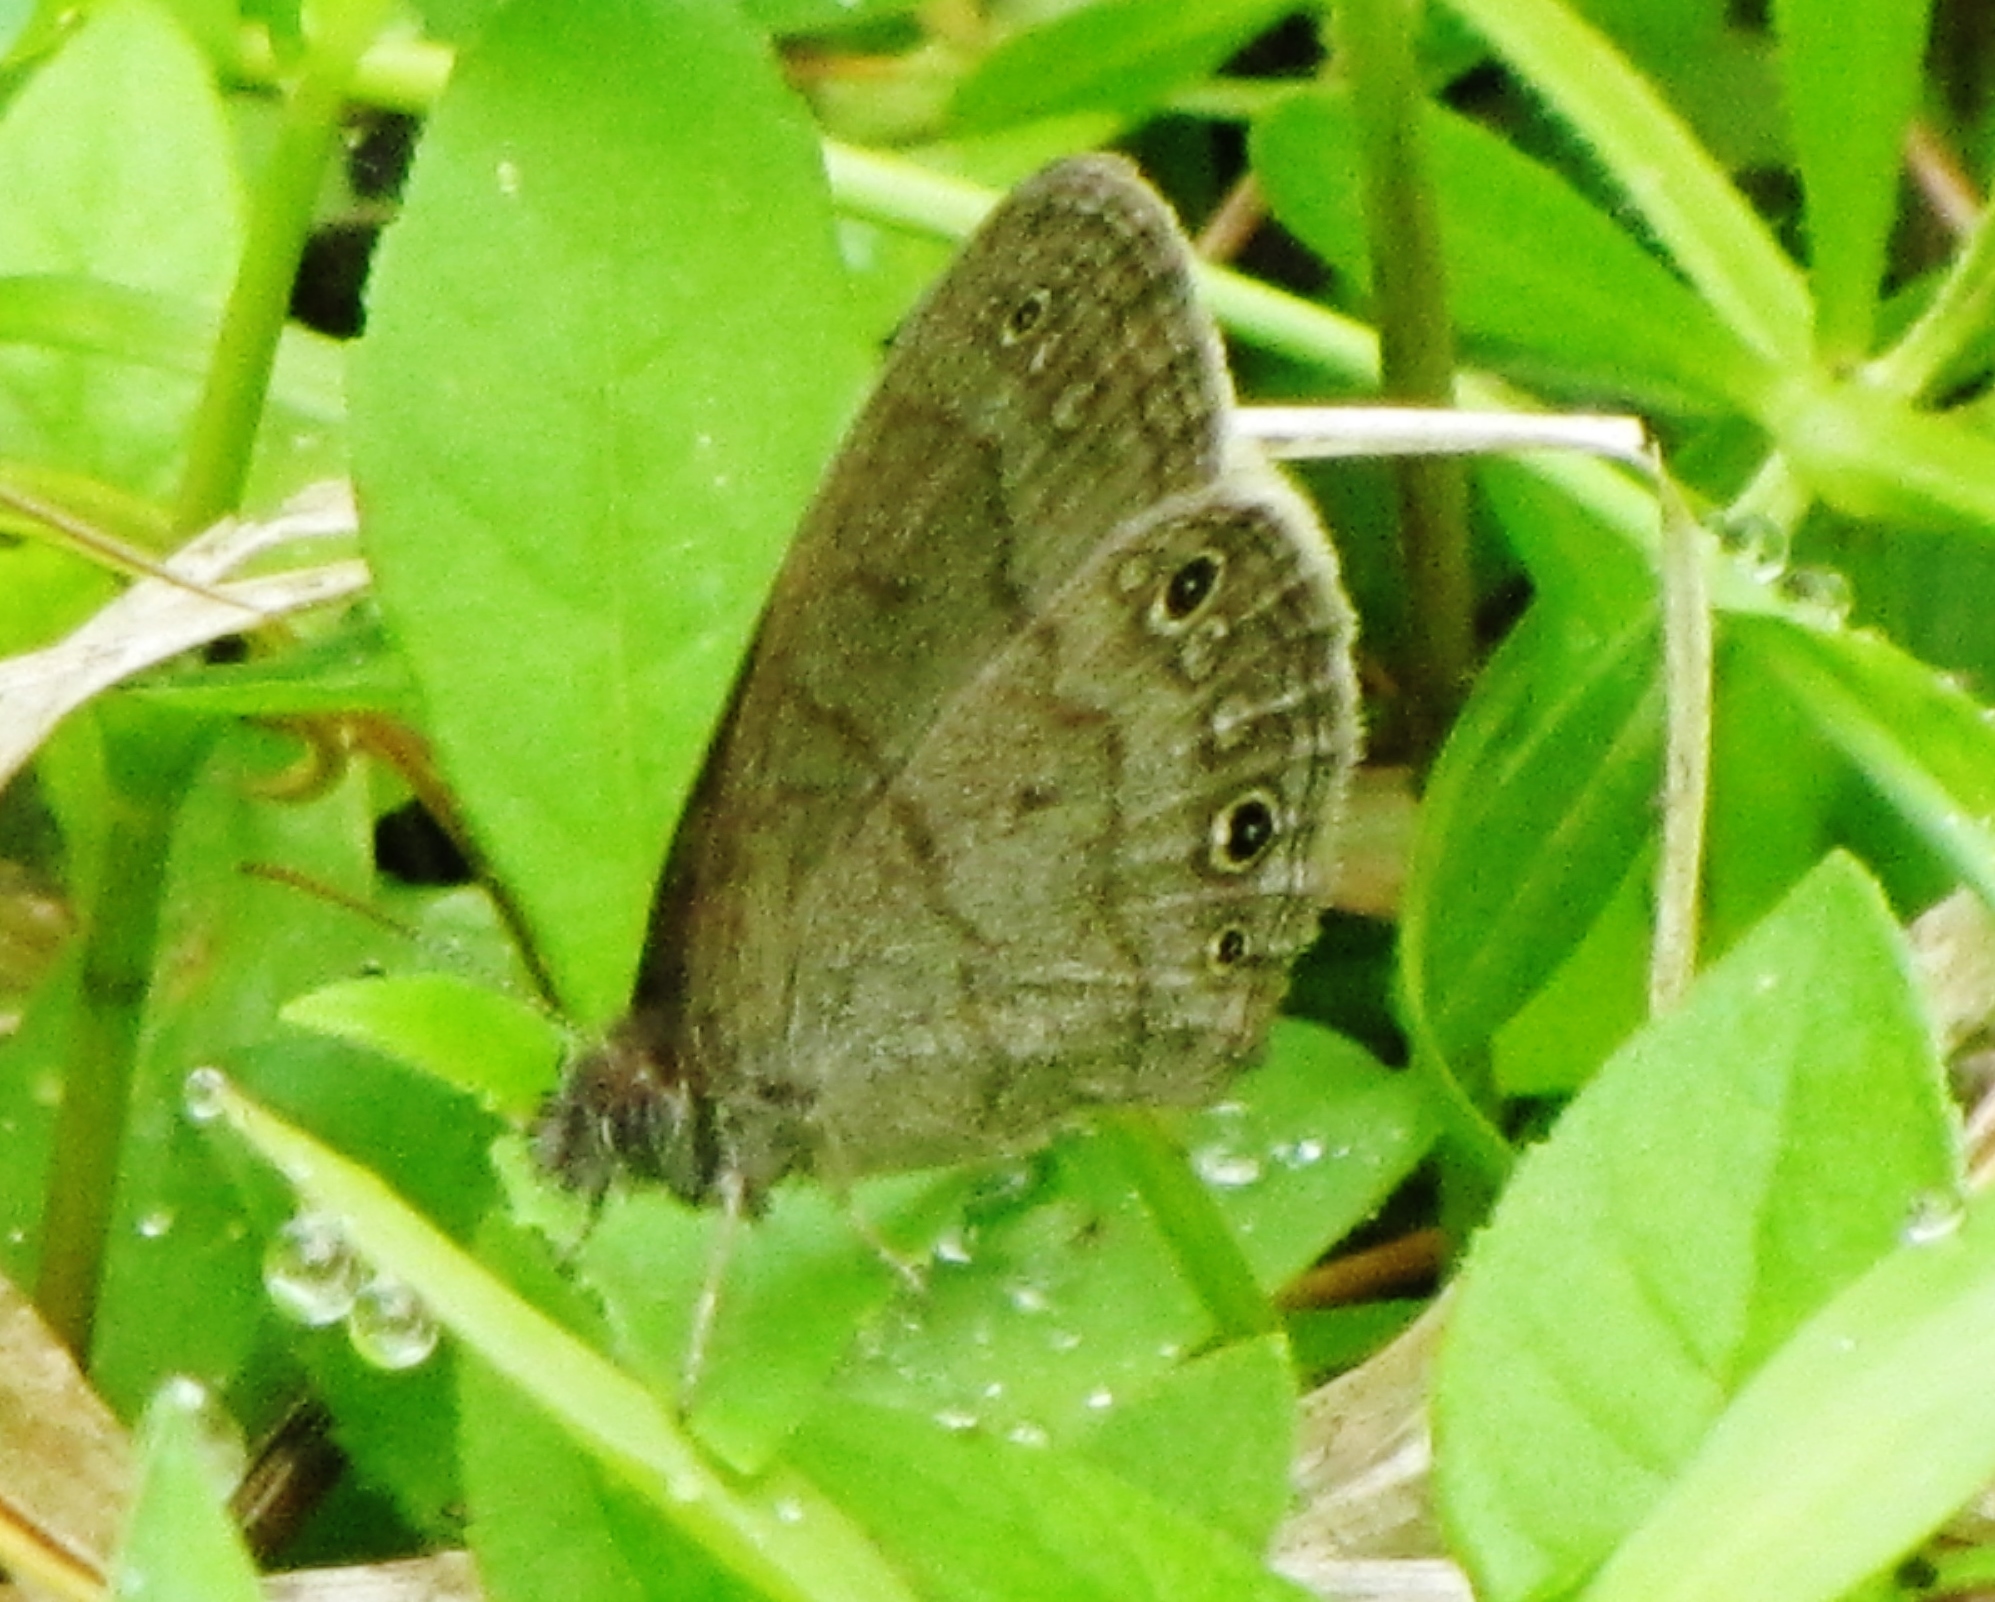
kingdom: Animalia
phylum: Arthropoda
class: Insecta
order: Lepidoptera
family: Nymphalidae
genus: Hermeuptychia
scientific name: Hermeuptychia hermes
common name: Hermes satyr
